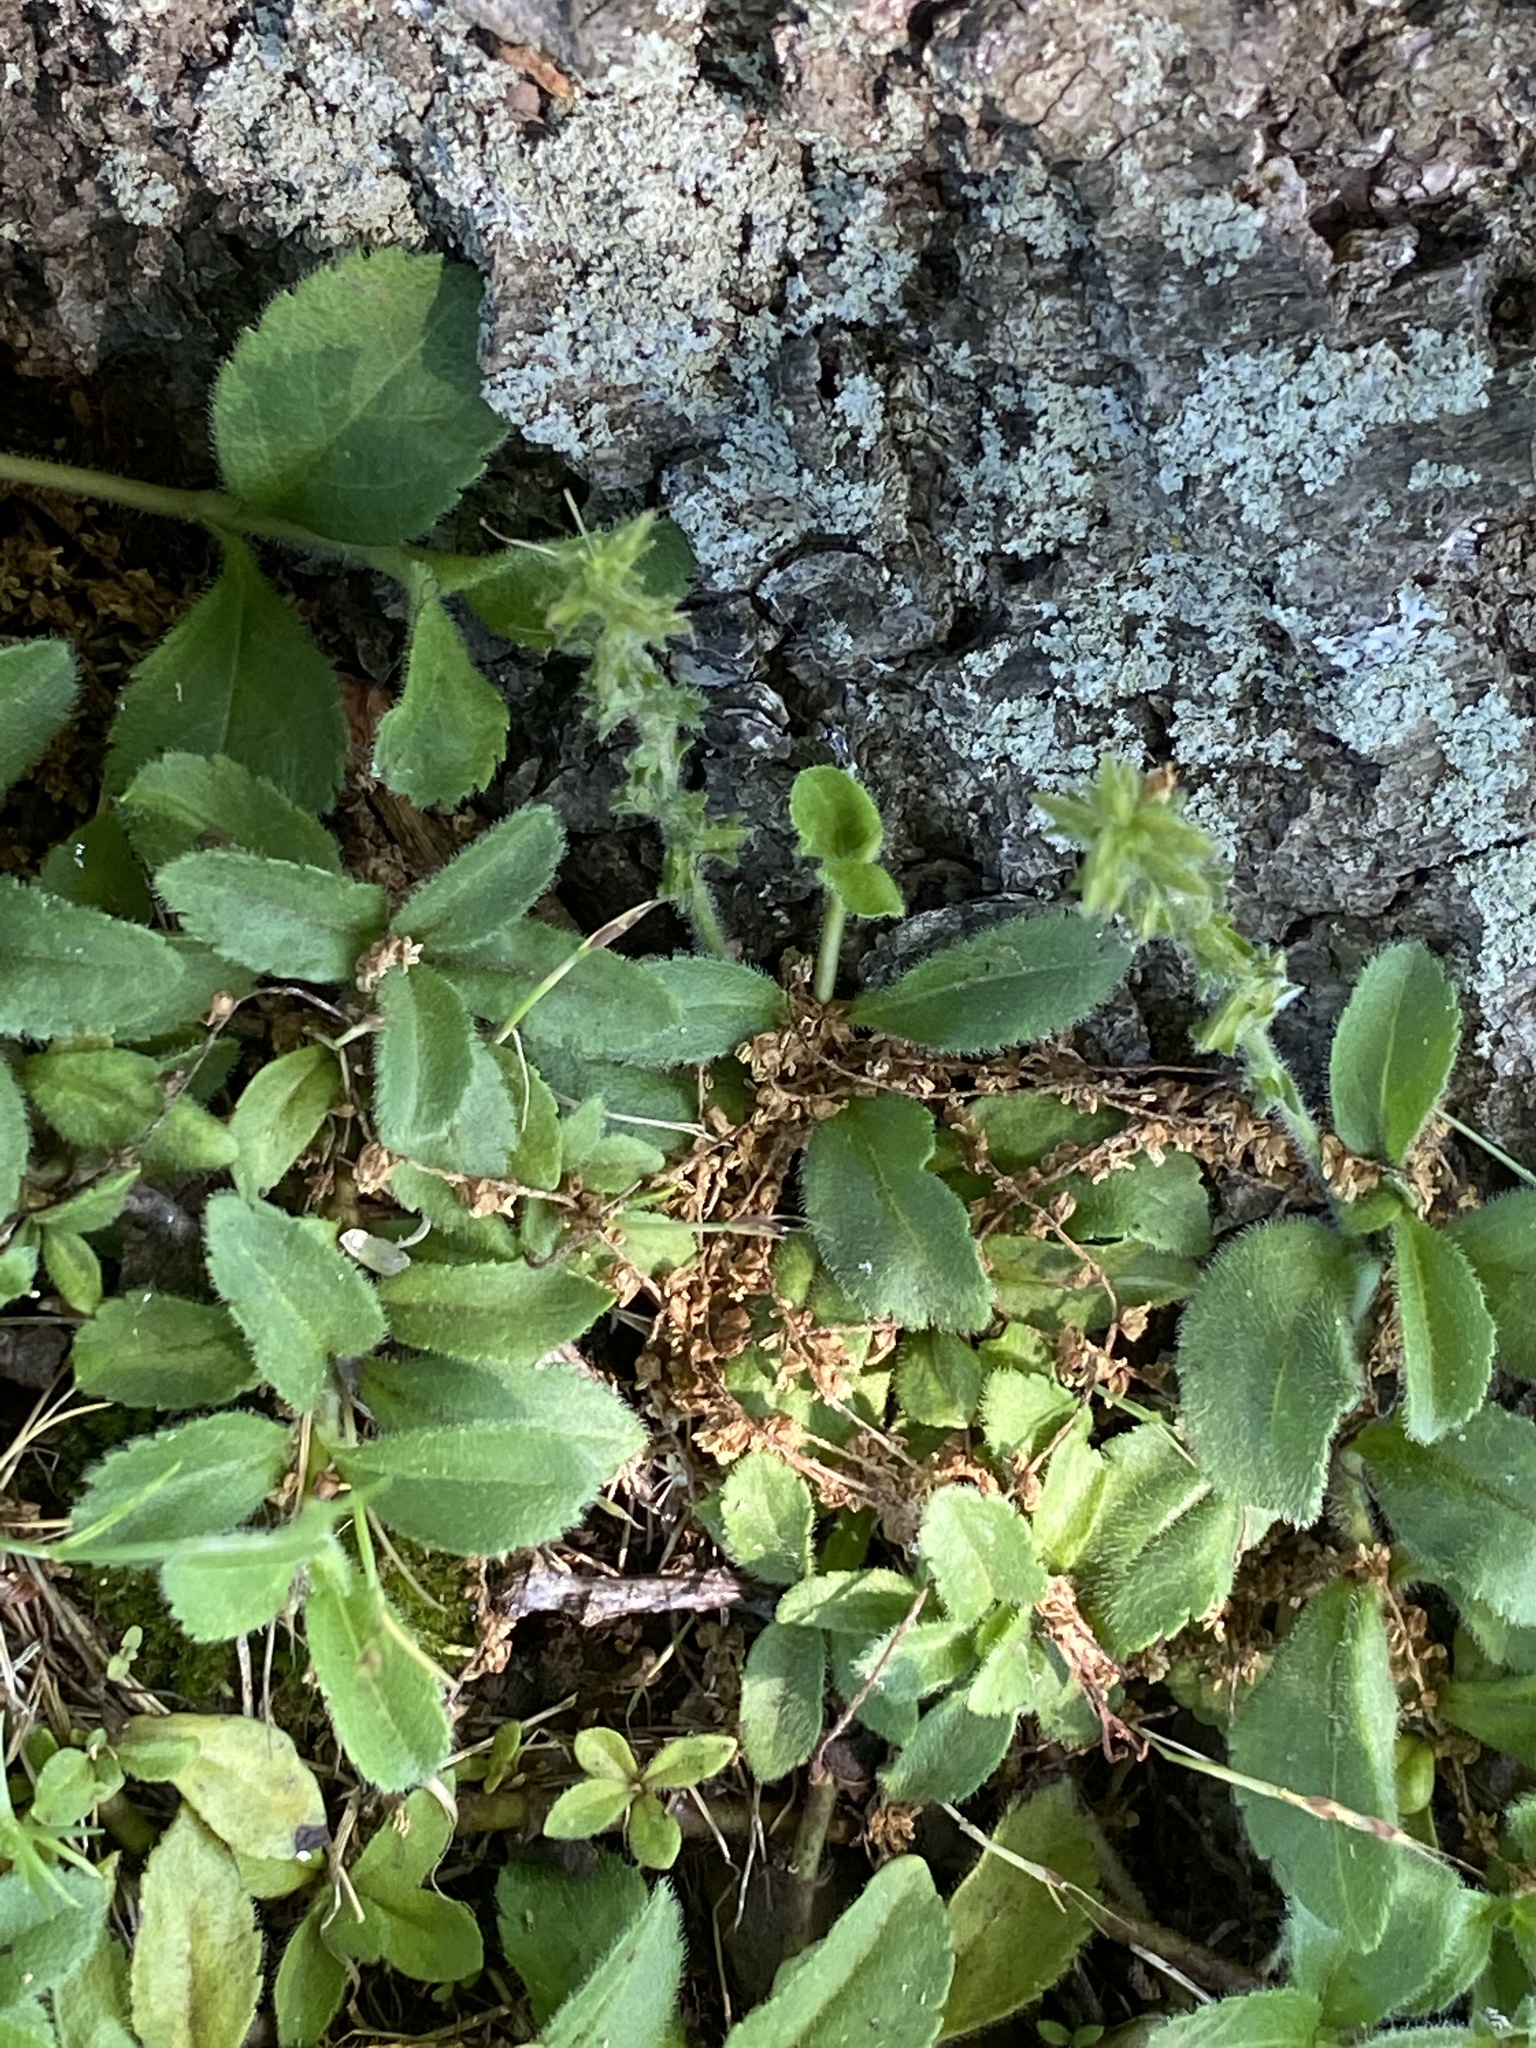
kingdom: Plantae
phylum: Tracheophyta
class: Magnoliopsida
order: Lamiales
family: Plantaginaceae
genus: Veronica
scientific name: Veronica officinalis
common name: Common speedwell
